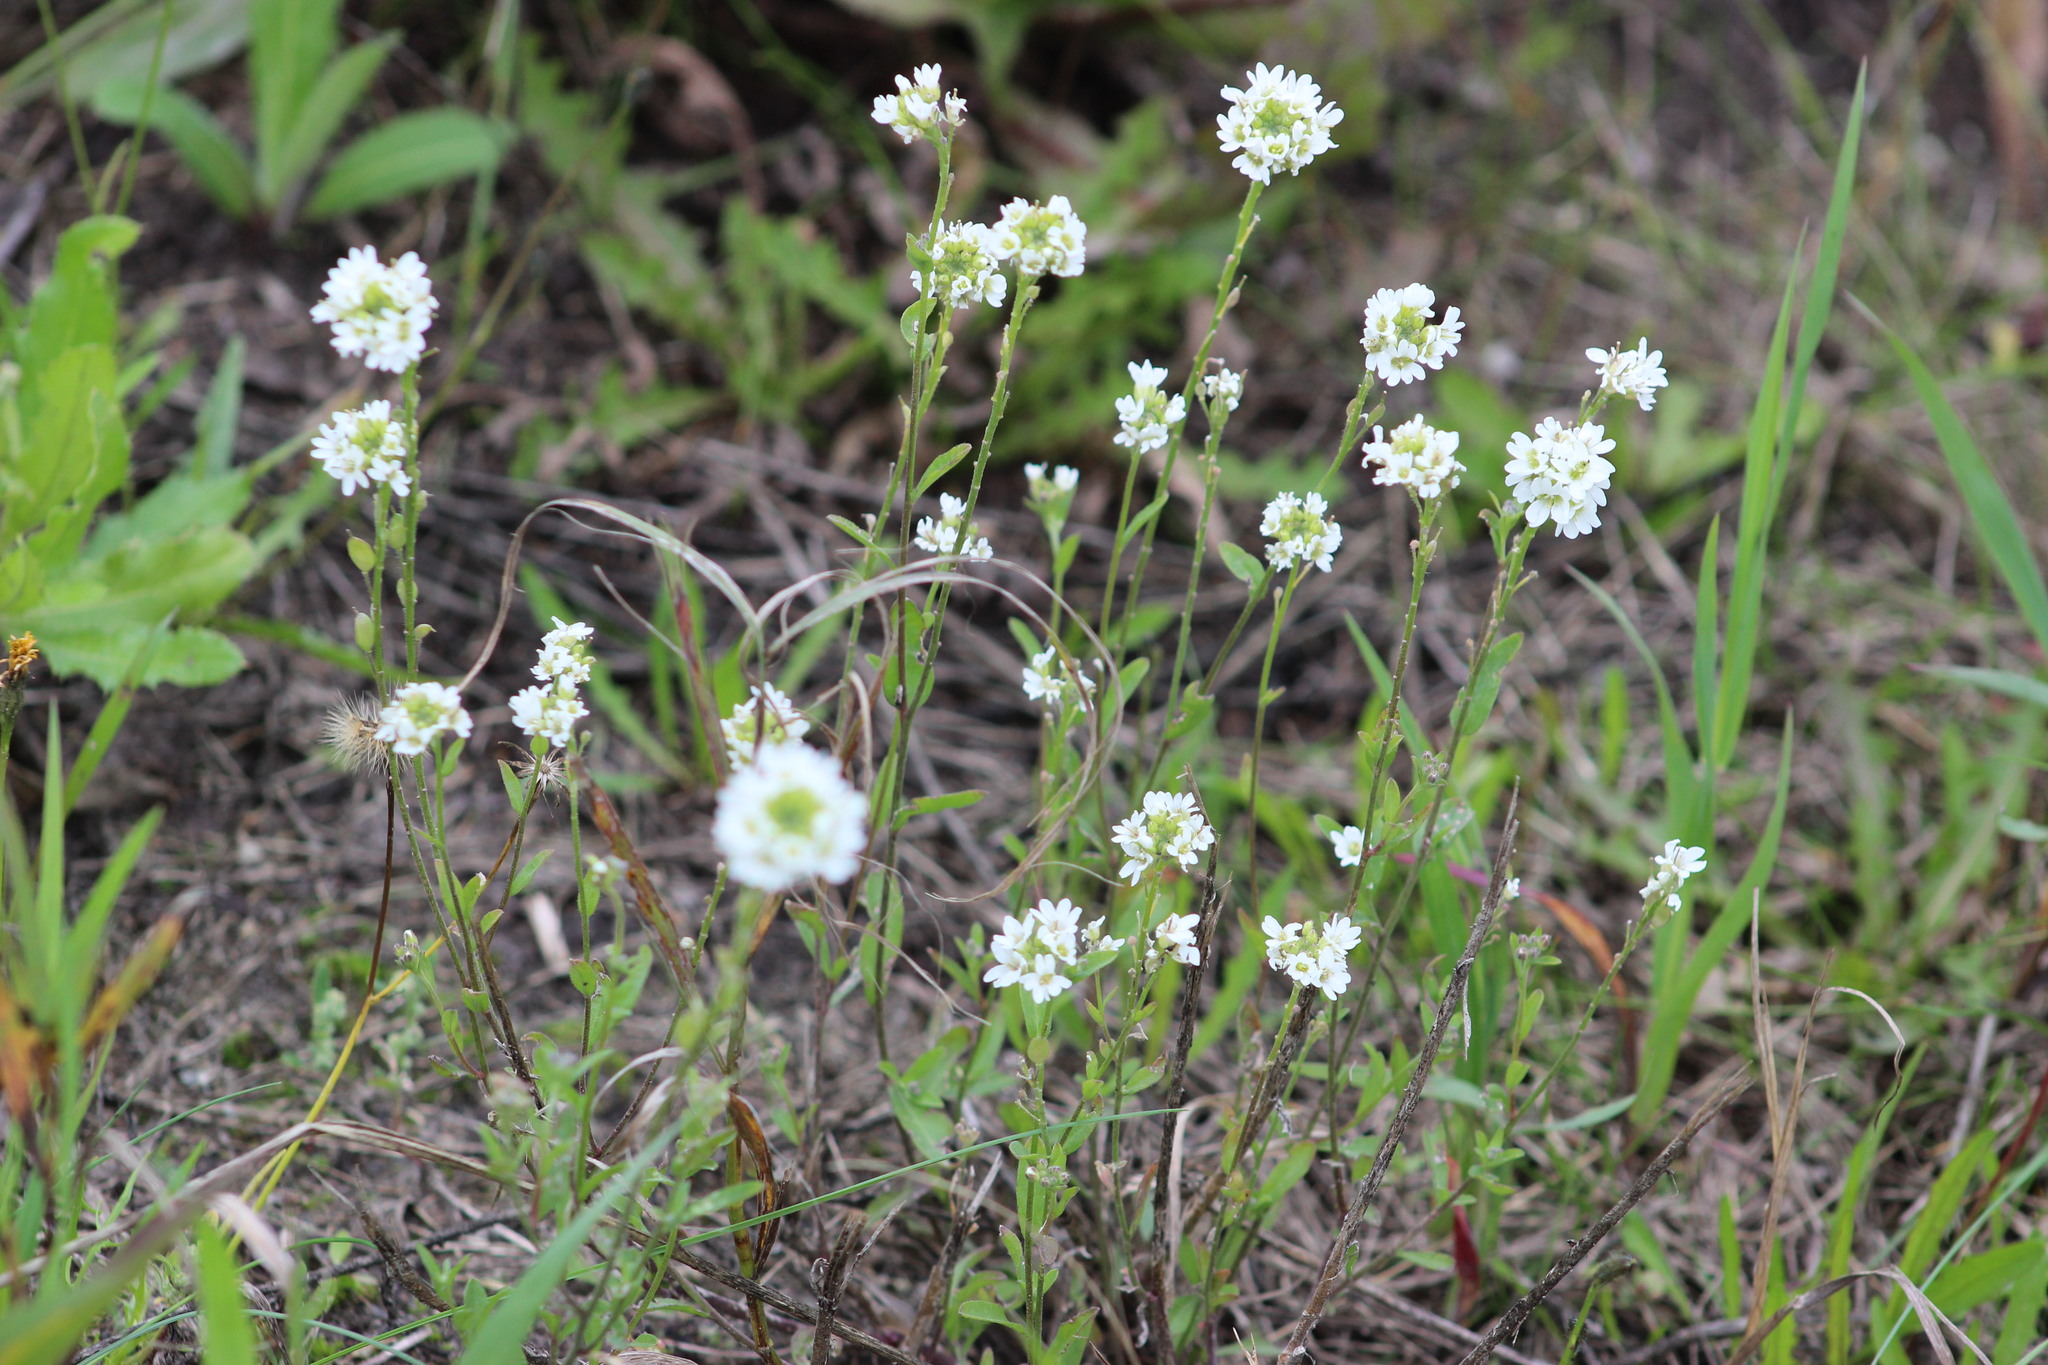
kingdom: Plantae
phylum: Tracheophyta
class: Magnoliopsida
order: Brassicales
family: Brassicaceae
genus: Berteroa
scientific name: Berteroa incana
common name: Hoary alison
